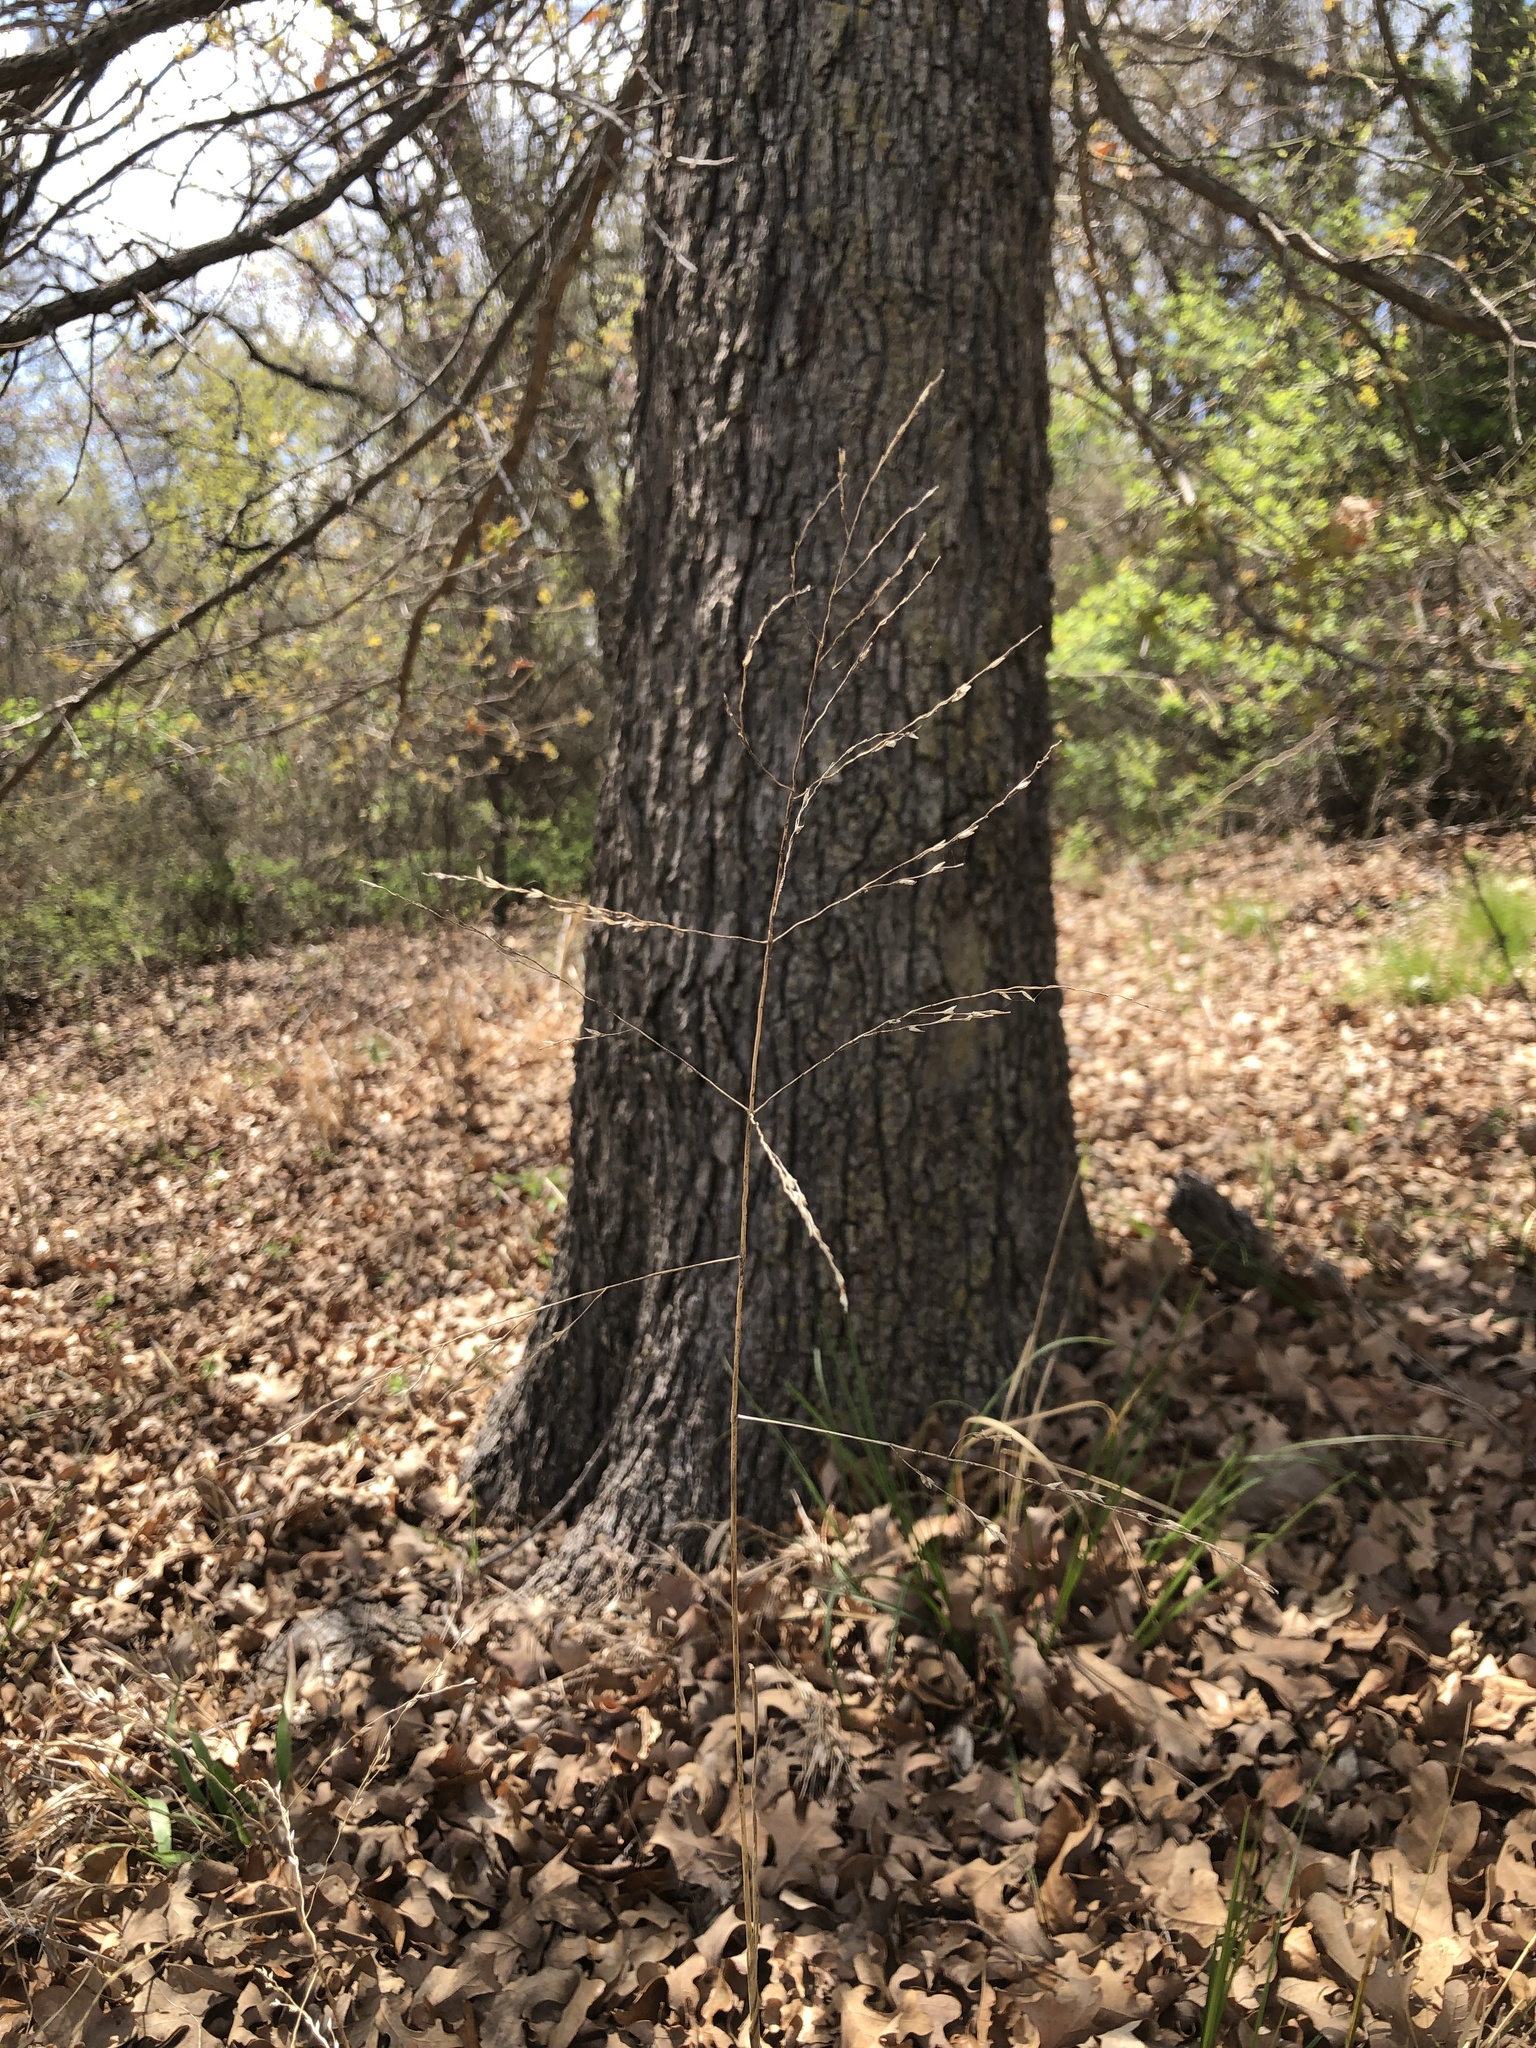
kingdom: Plantae
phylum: Tracheophyta
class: Liliopsida
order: Poales
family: Poaceae
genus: Tridens
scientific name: Tridens flavus
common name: Purpletop
